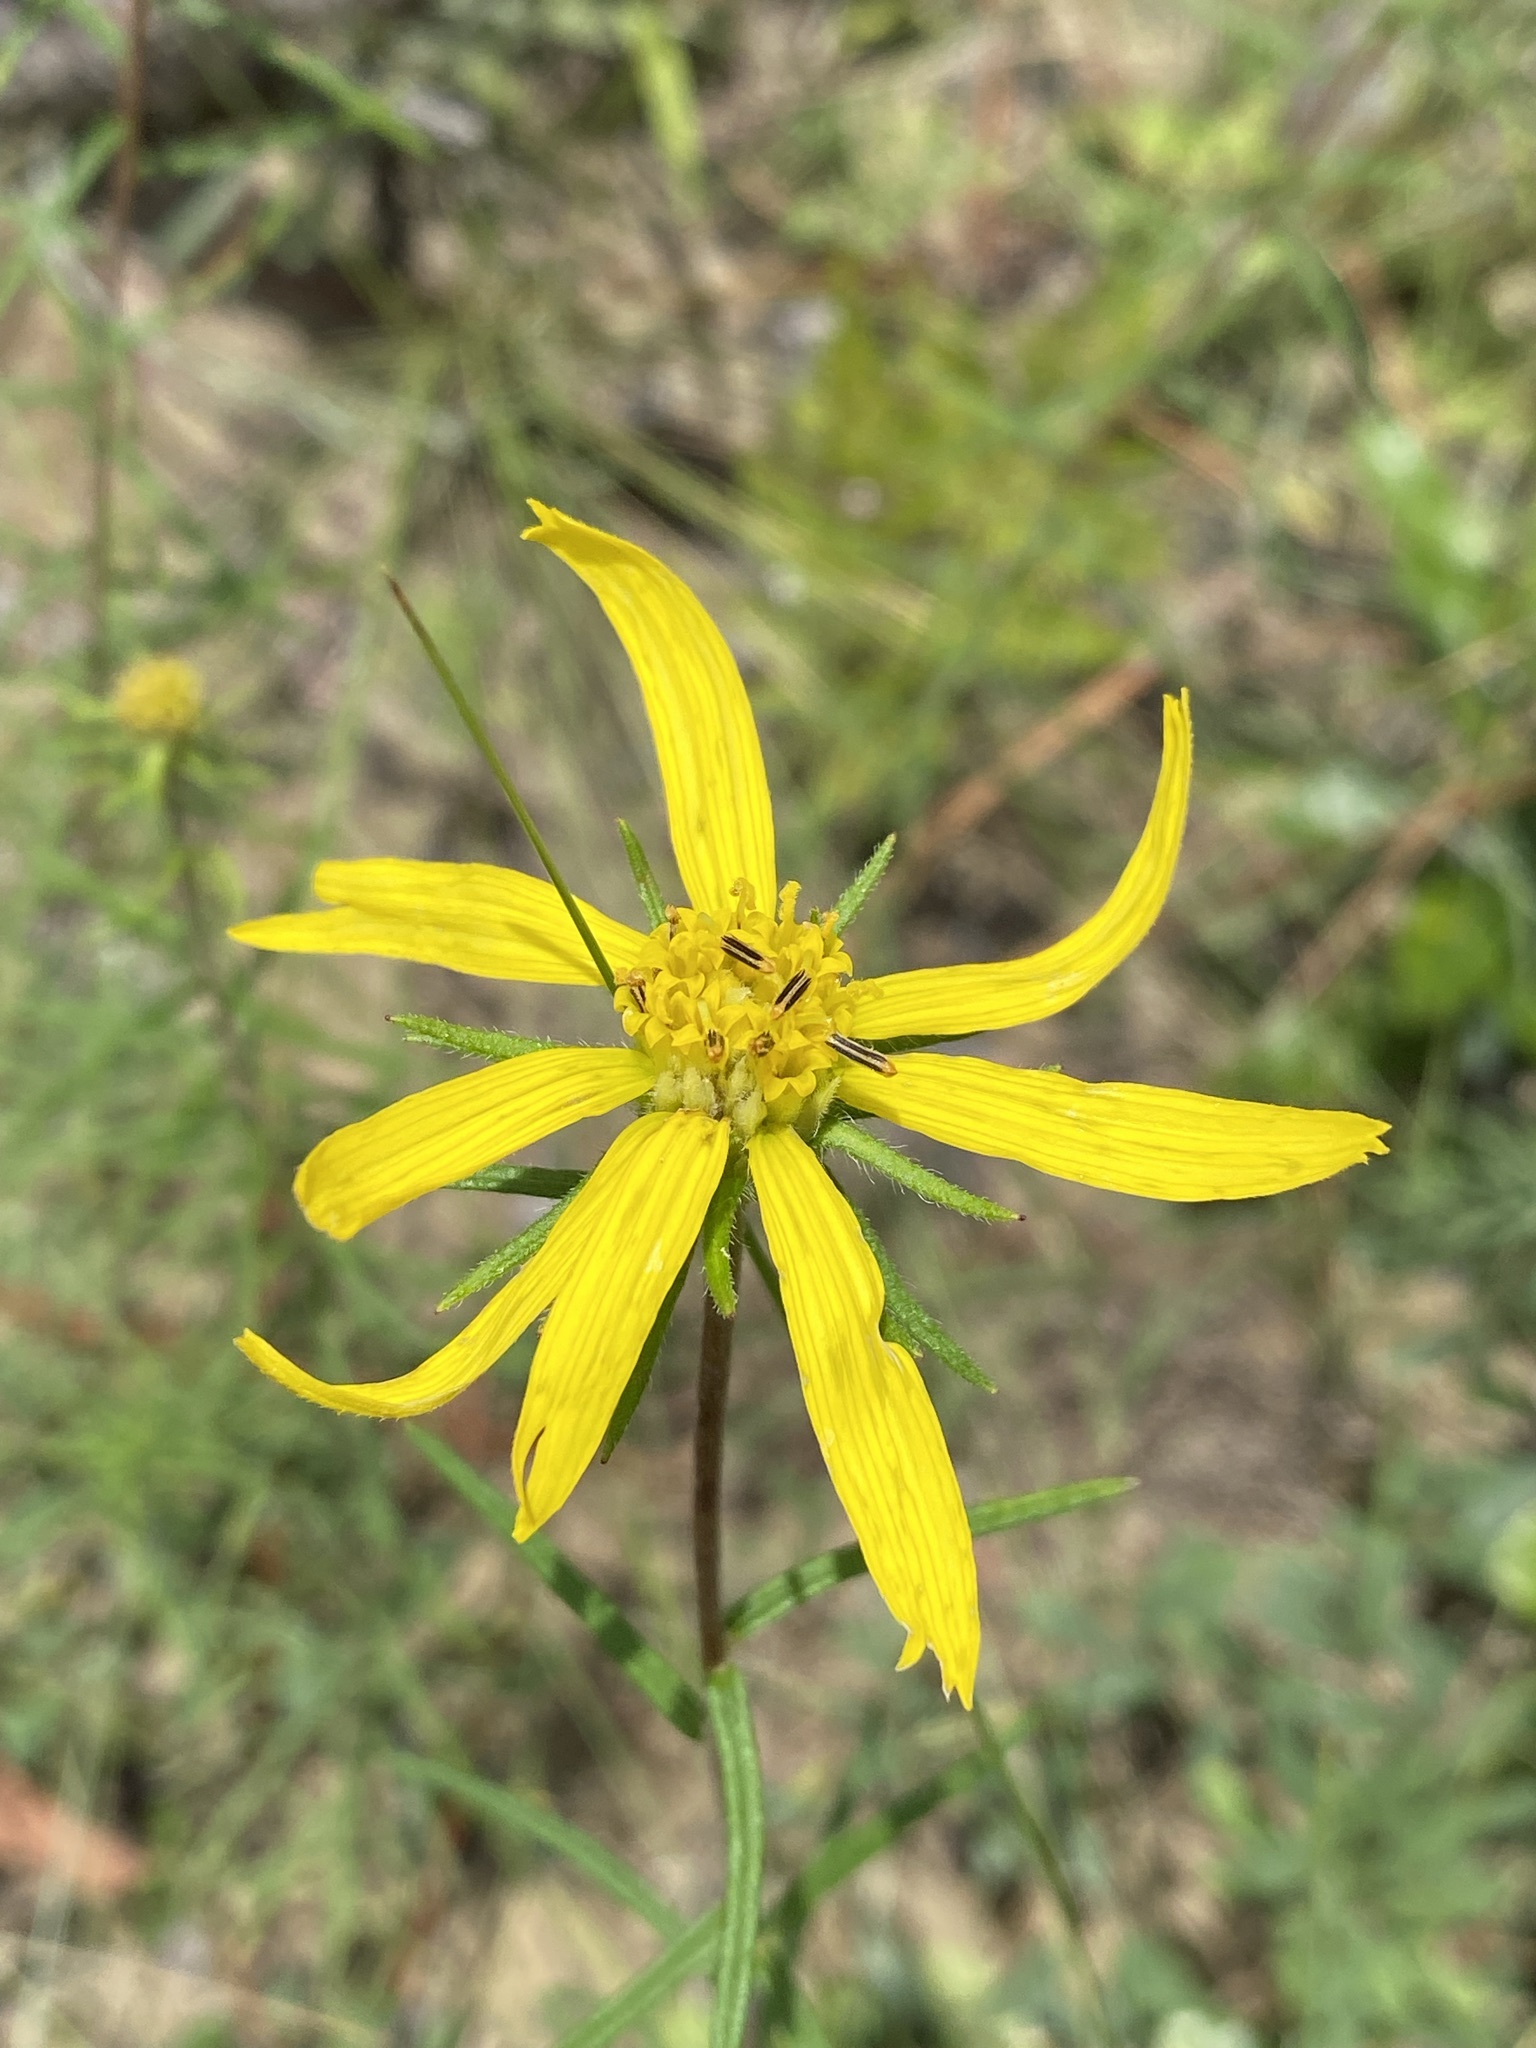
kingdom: Plantae
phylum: Tracheophyta
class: Magnoliopsida
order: Asterales
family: Asteraceae
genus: Phoebanthus
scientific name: Phoebanthus tenuifolia
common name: Pineland false sunflower
